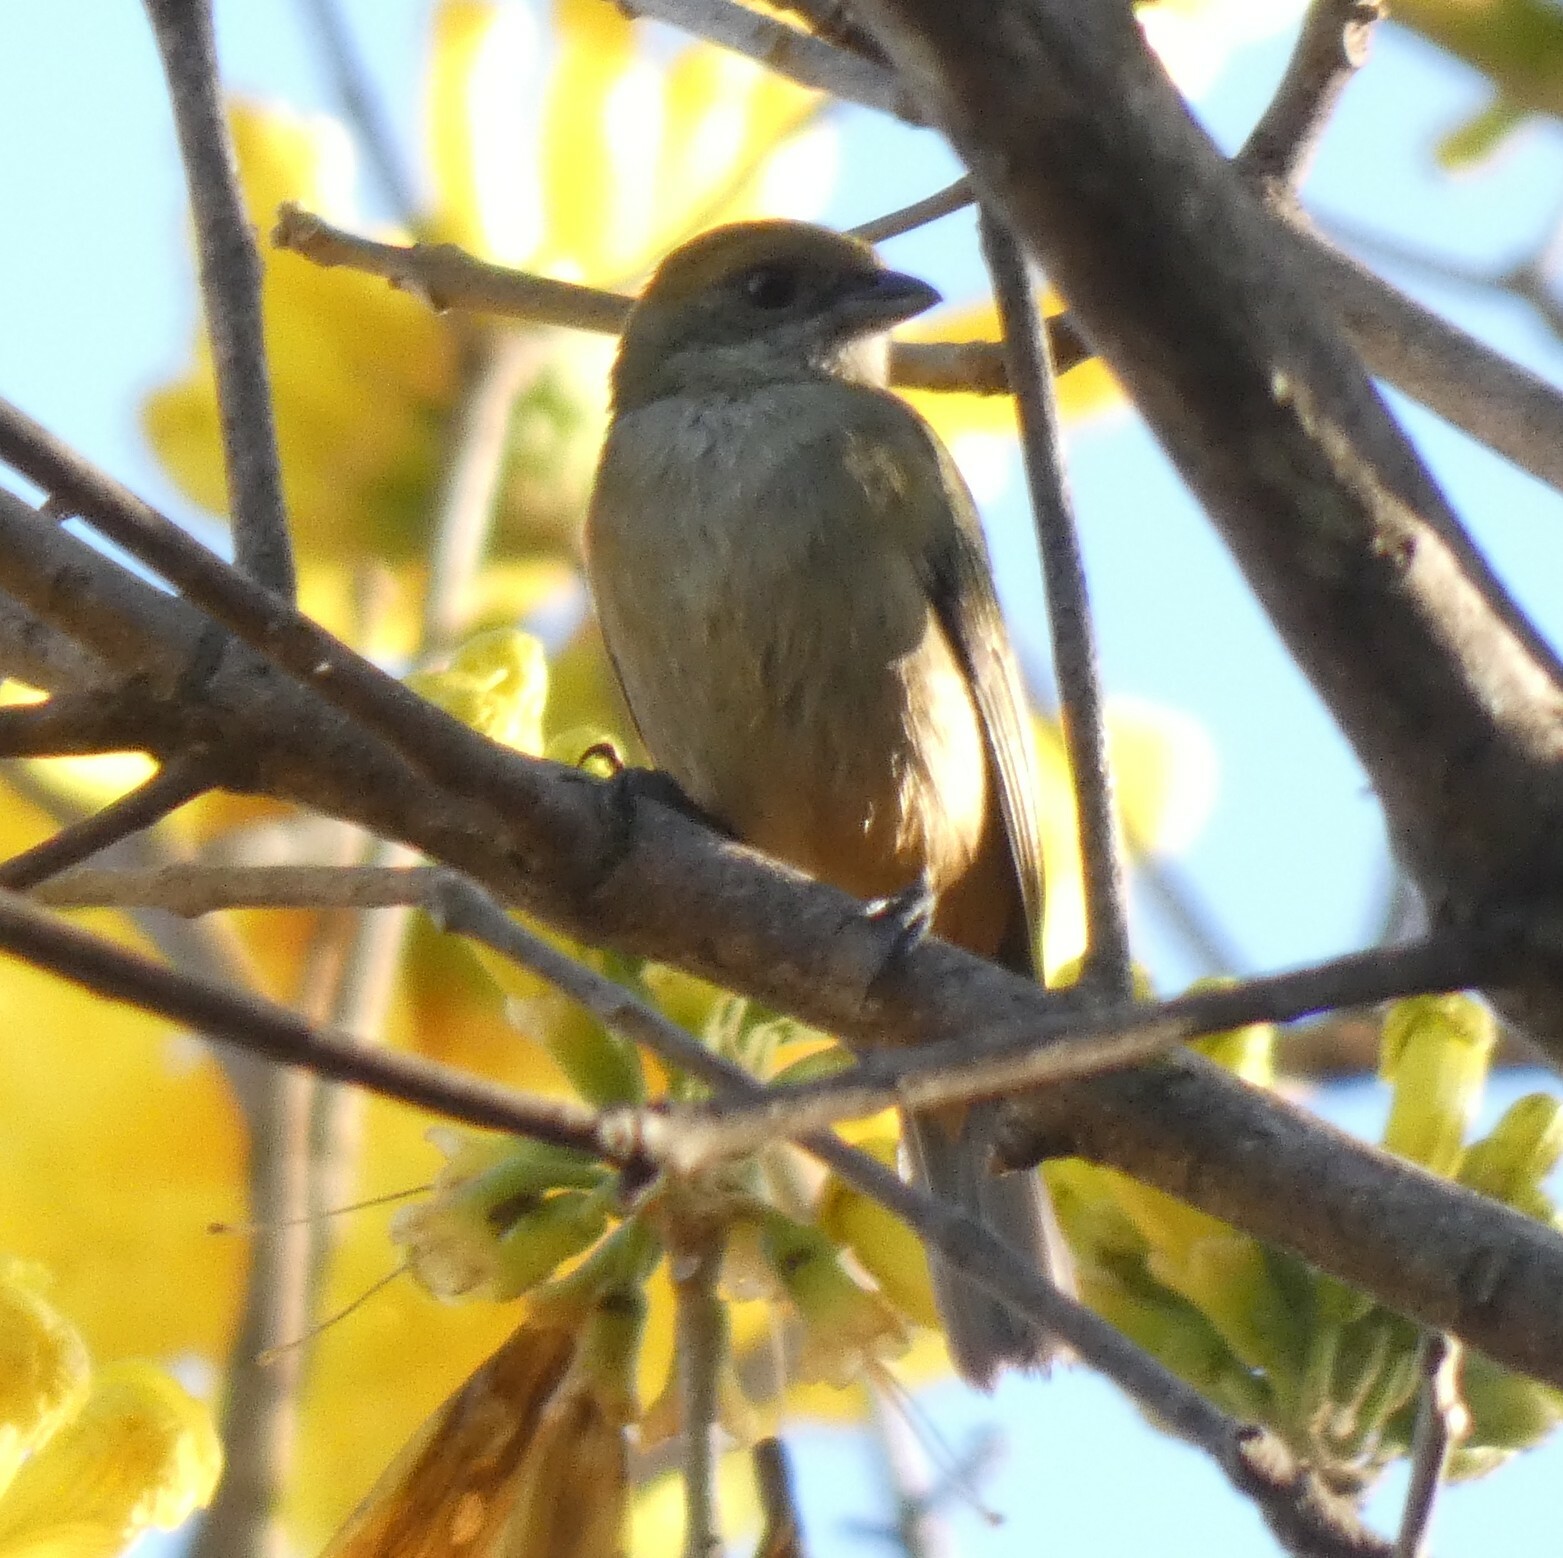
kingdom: Animalia
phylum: Chordata
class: Aves
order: Passeriformes
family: Thraupidae
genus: Stilpnia
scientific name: Stilpnia cayana
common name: Burnished-buff tanager
